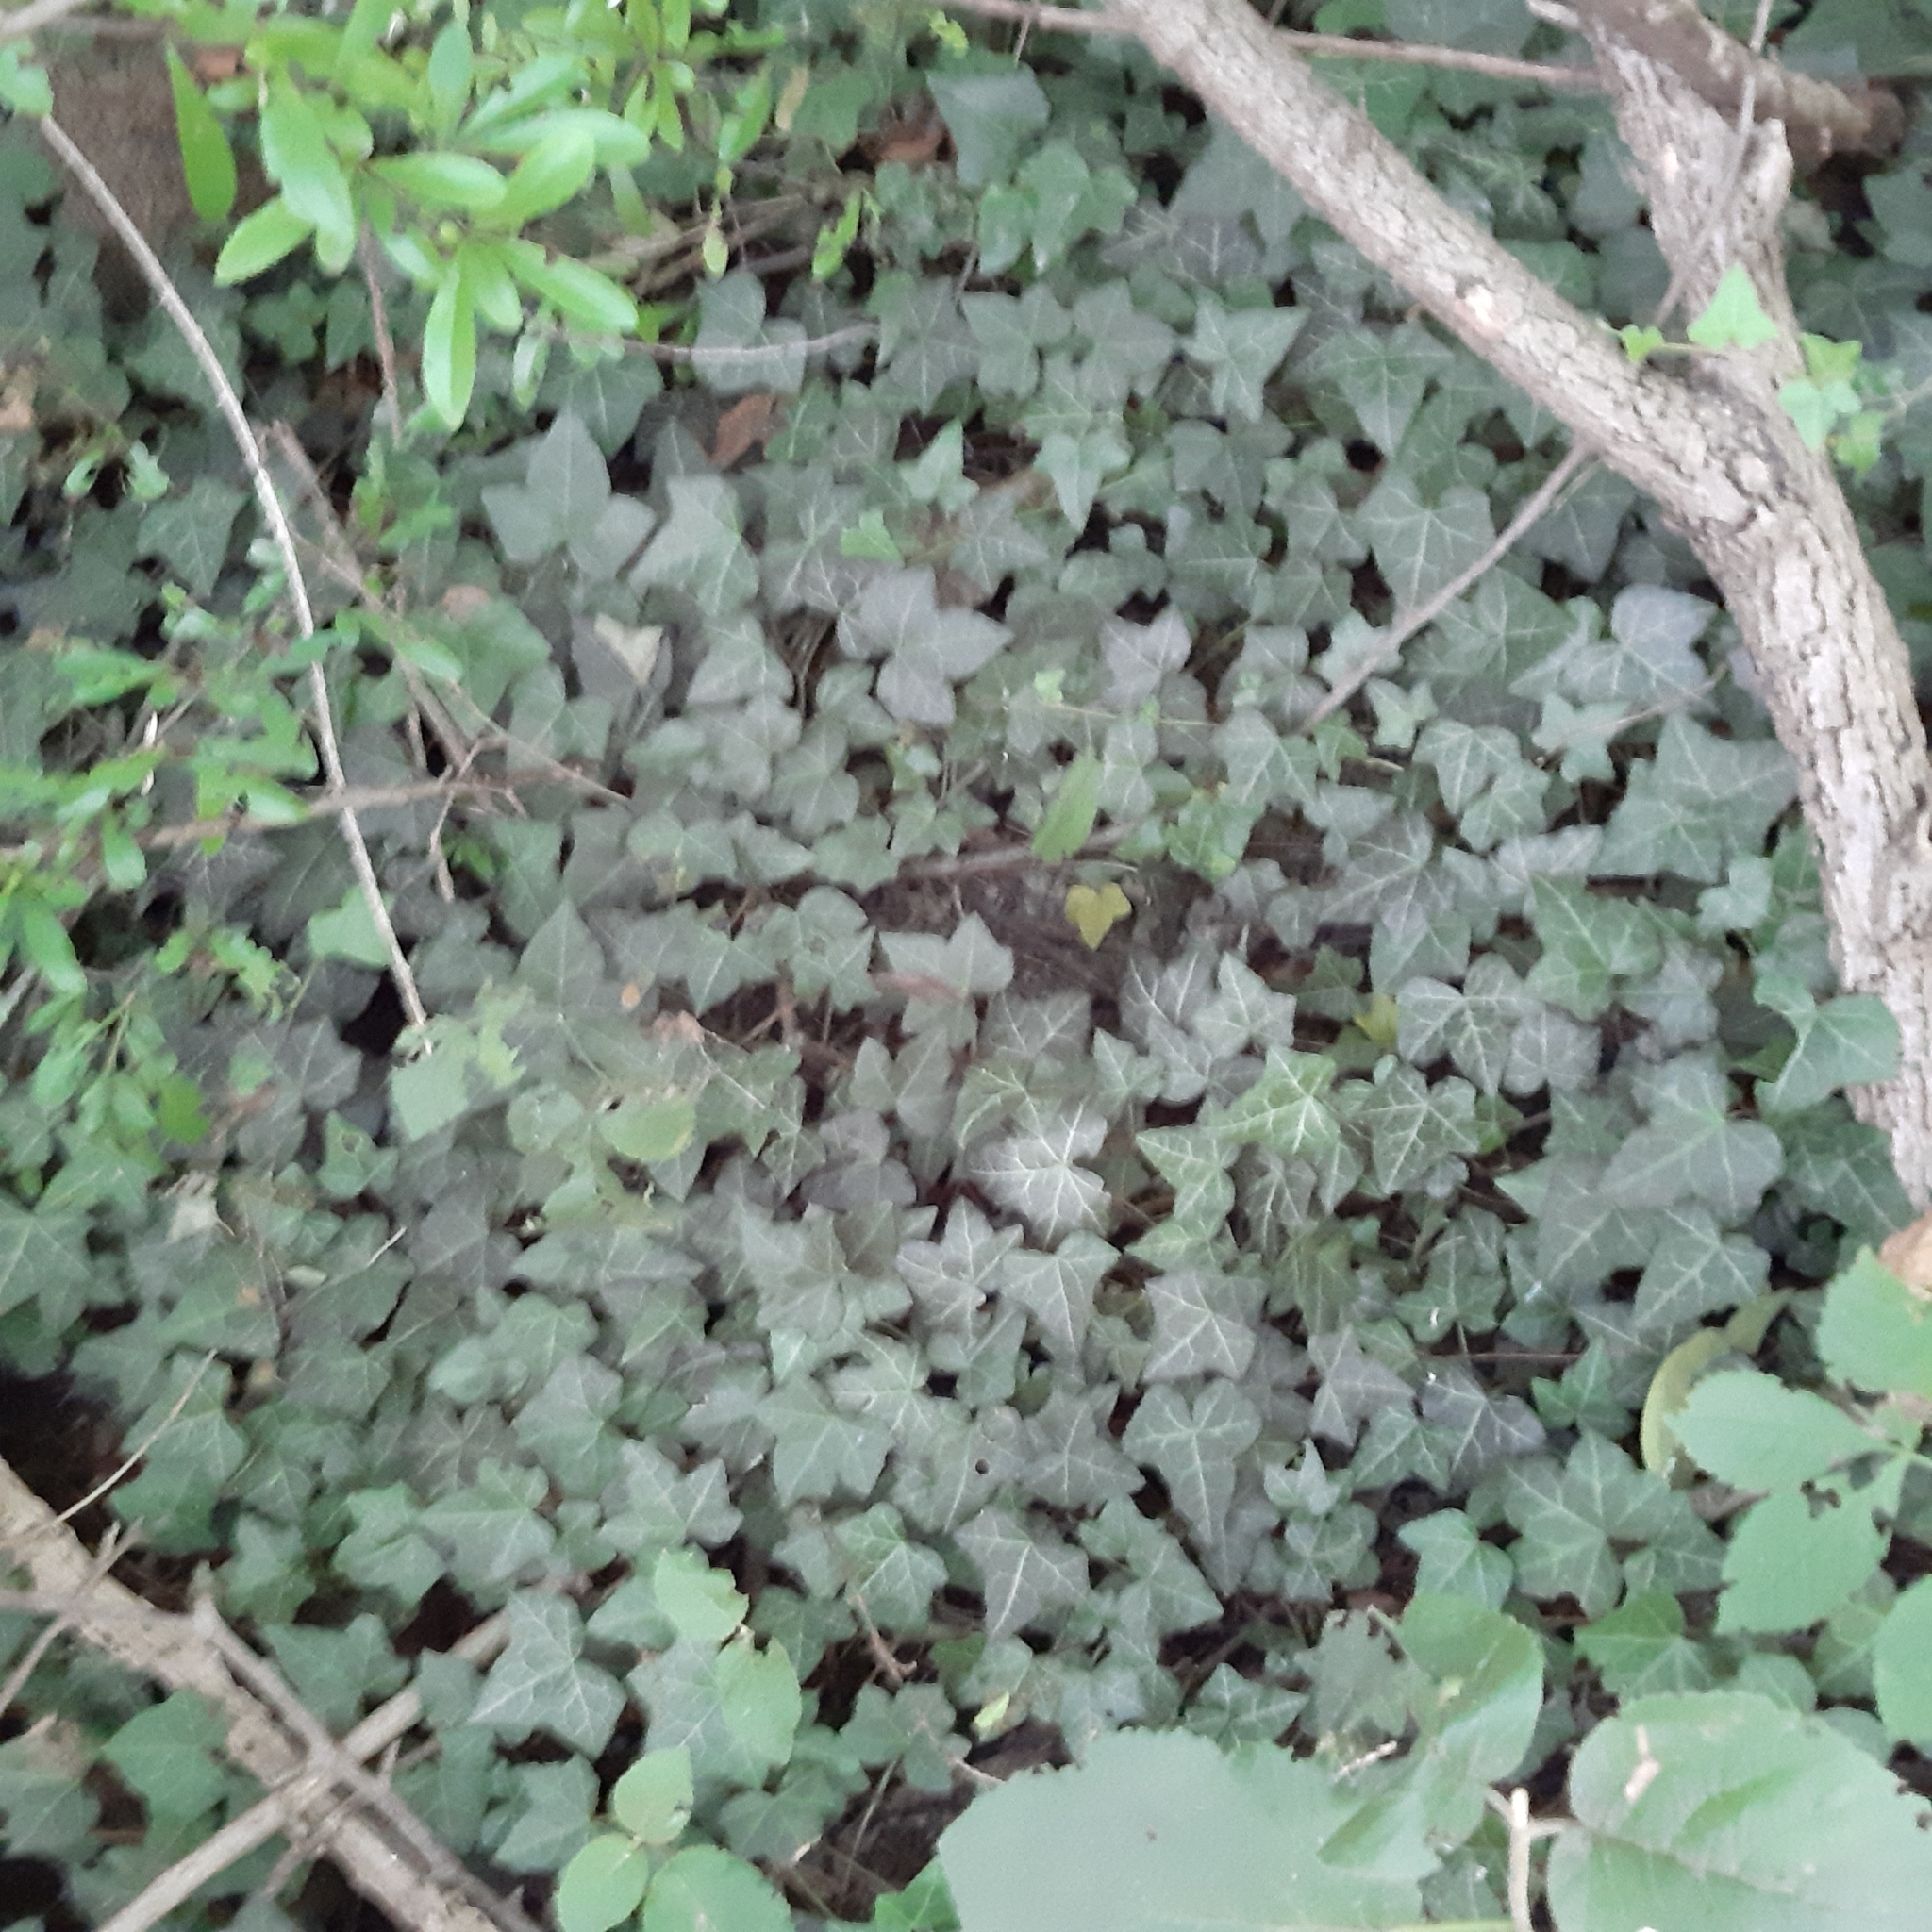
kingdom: Plantae
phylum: Tracheophyta
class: Magnoliopsida
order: Apiales
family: Araliaceae
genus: Hedera
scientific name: Hedera helix
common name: Ivy
